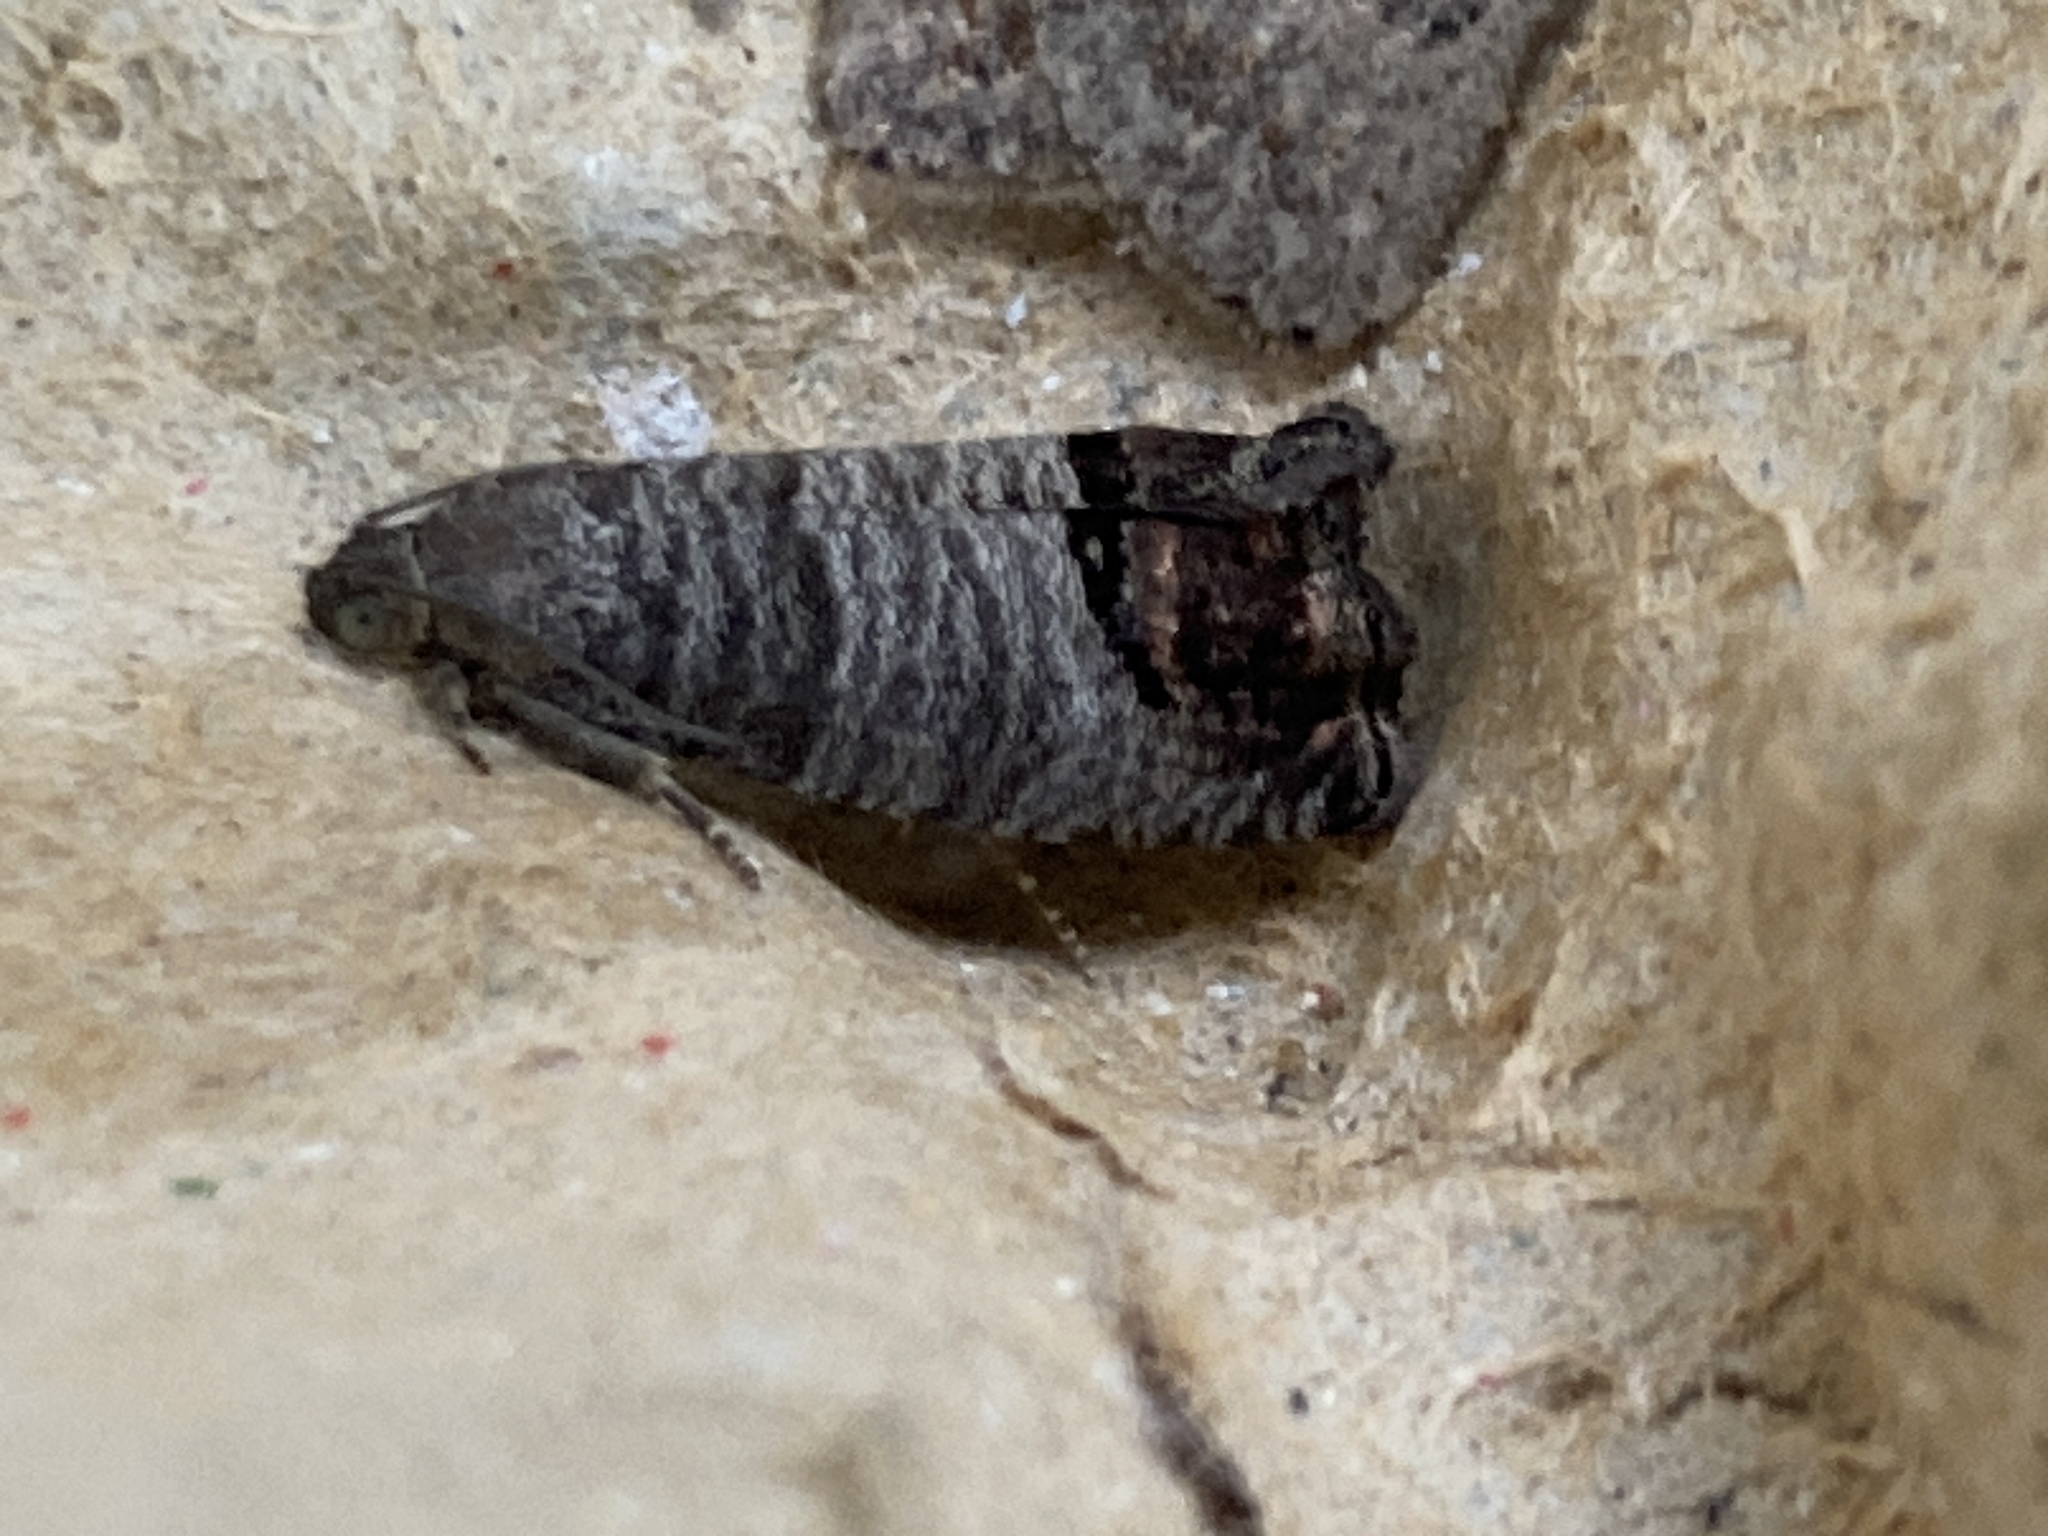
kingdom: Animalia
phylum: Arthropoda
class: Insecta
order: Lepidoptera
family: Tortricidae
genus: Cydia
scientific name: Cydia pomonella
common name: Codling moth
